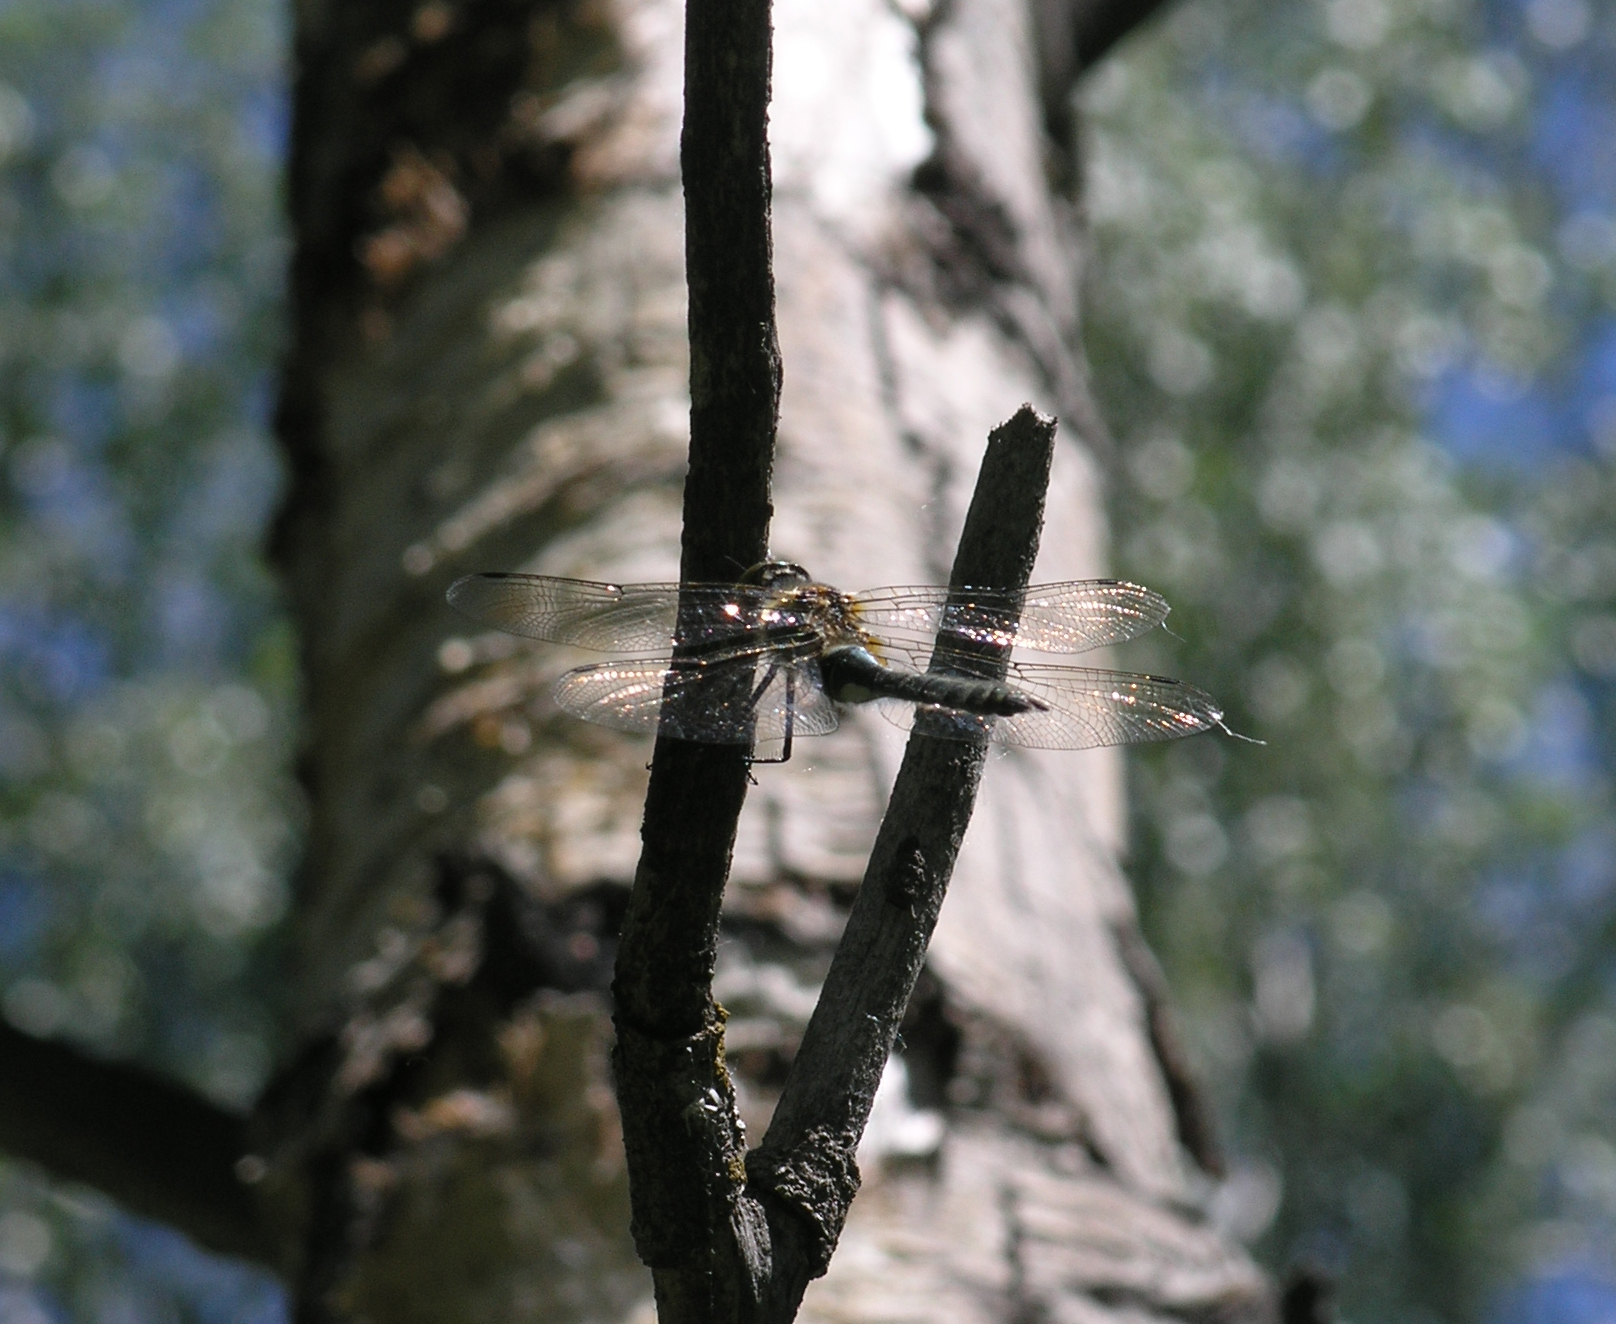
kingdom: Animalia
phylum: Arthropoda
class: Insecta
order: Odonata
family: Corduliidae
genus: Cordulia
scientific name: Cordulia aenea
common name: Downy emerald
